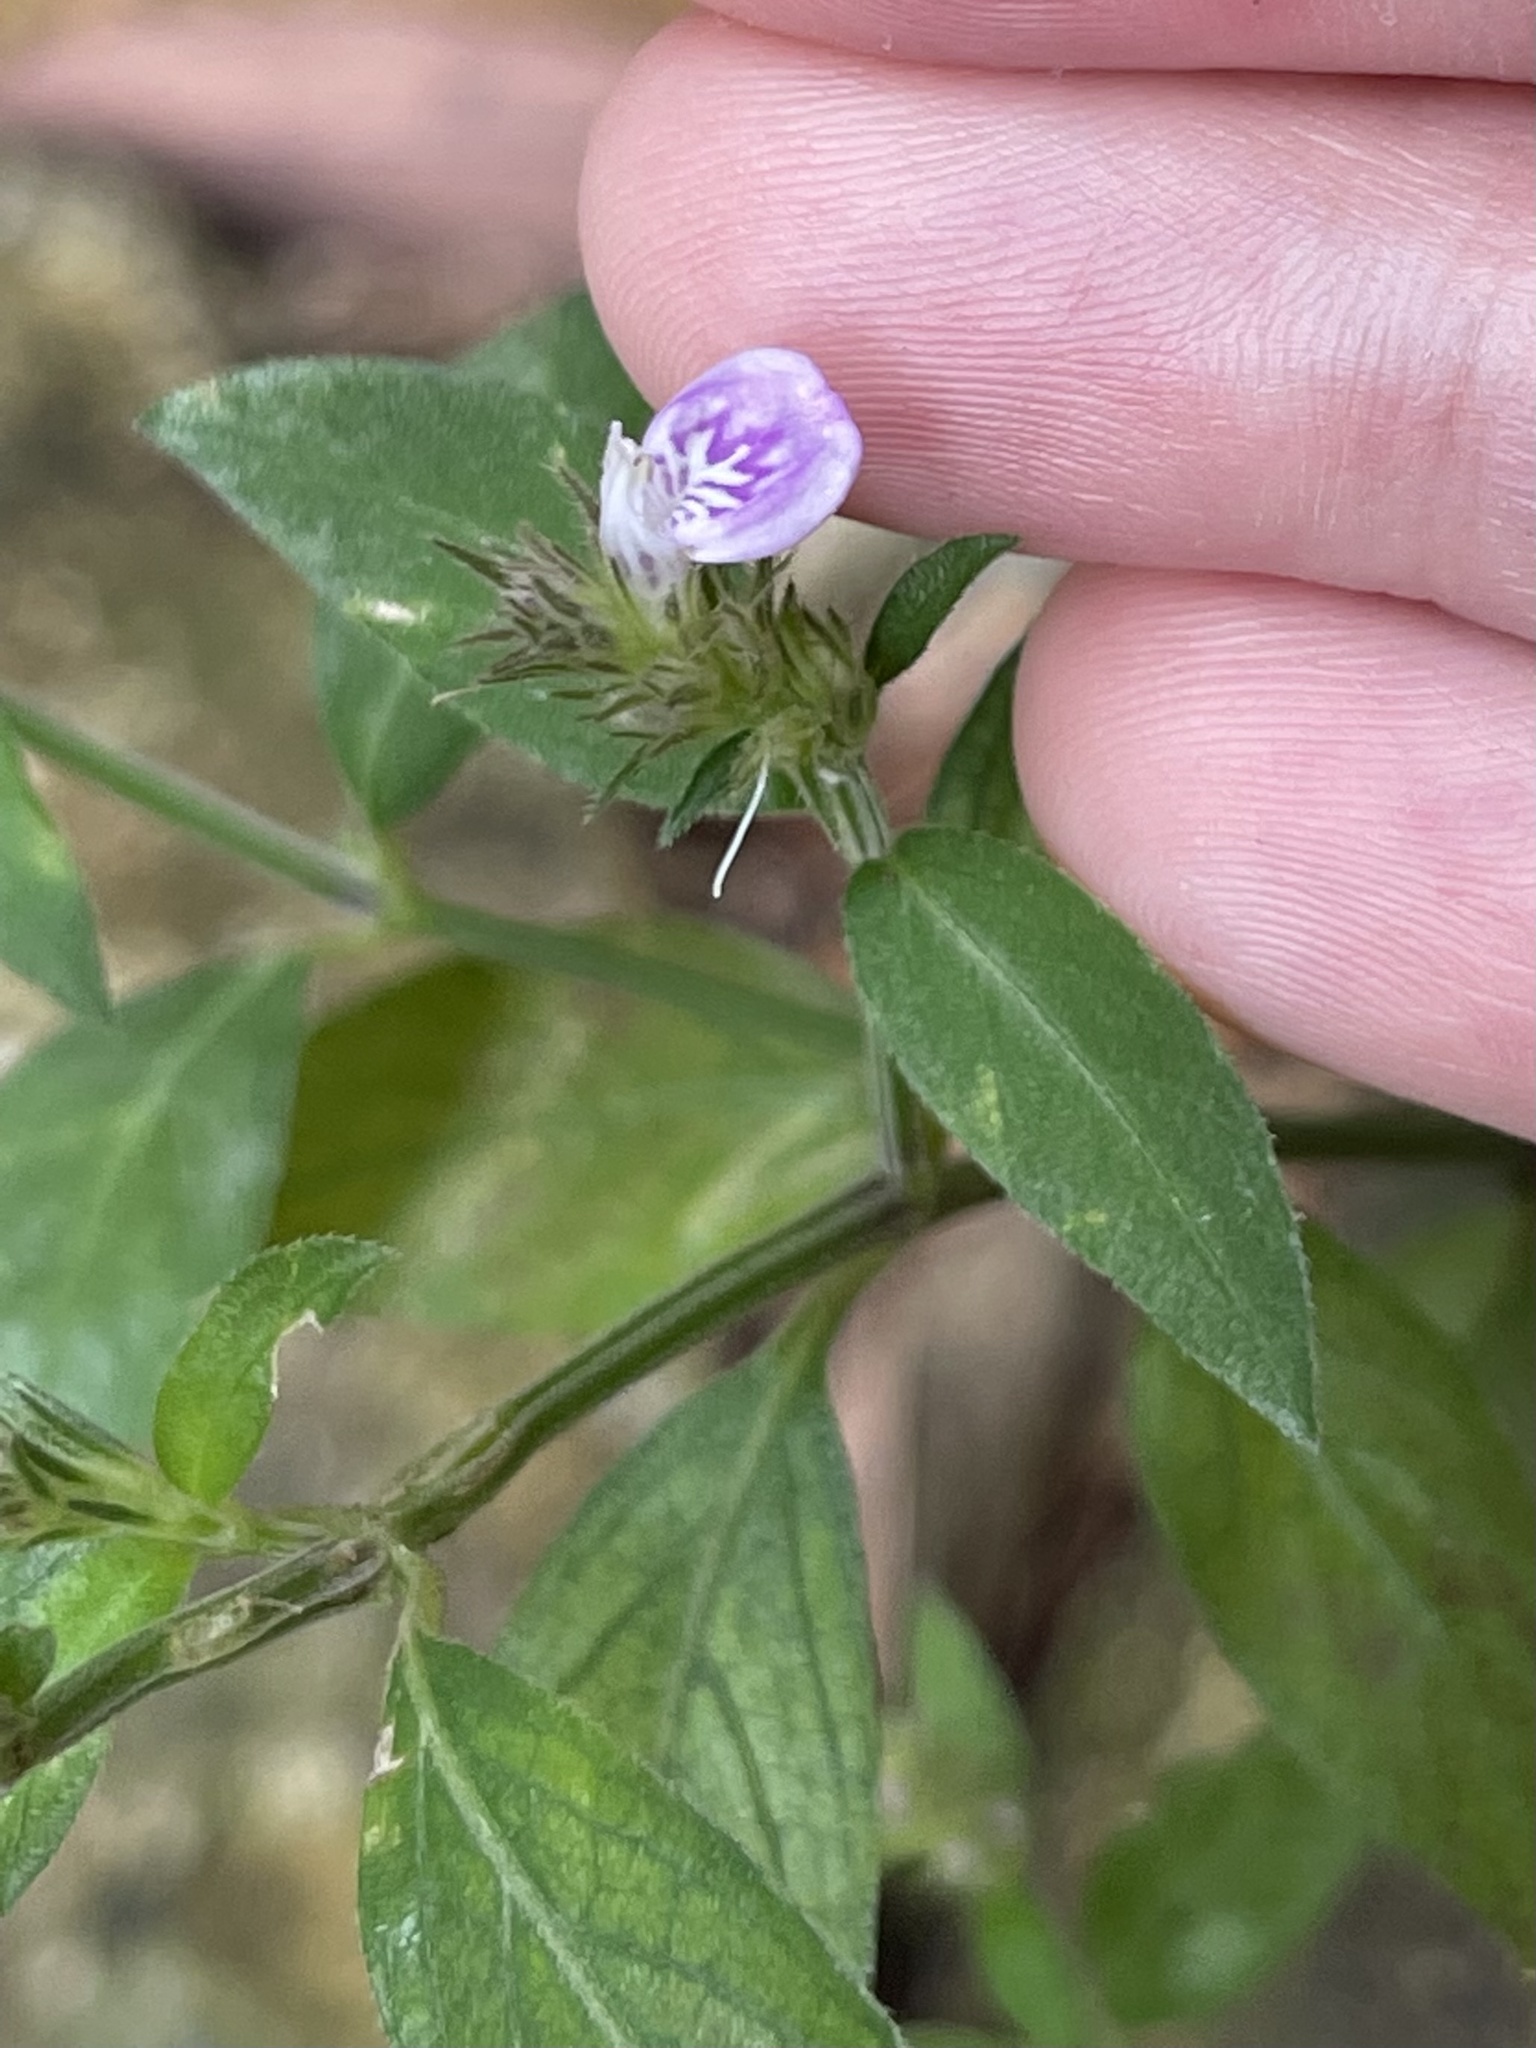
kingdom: Plantae
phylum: Tracheophyta
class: Magnoliopsida
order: Lamiales
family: Acanthaceae
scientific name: Acanthaceae
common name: Acanthaceae
